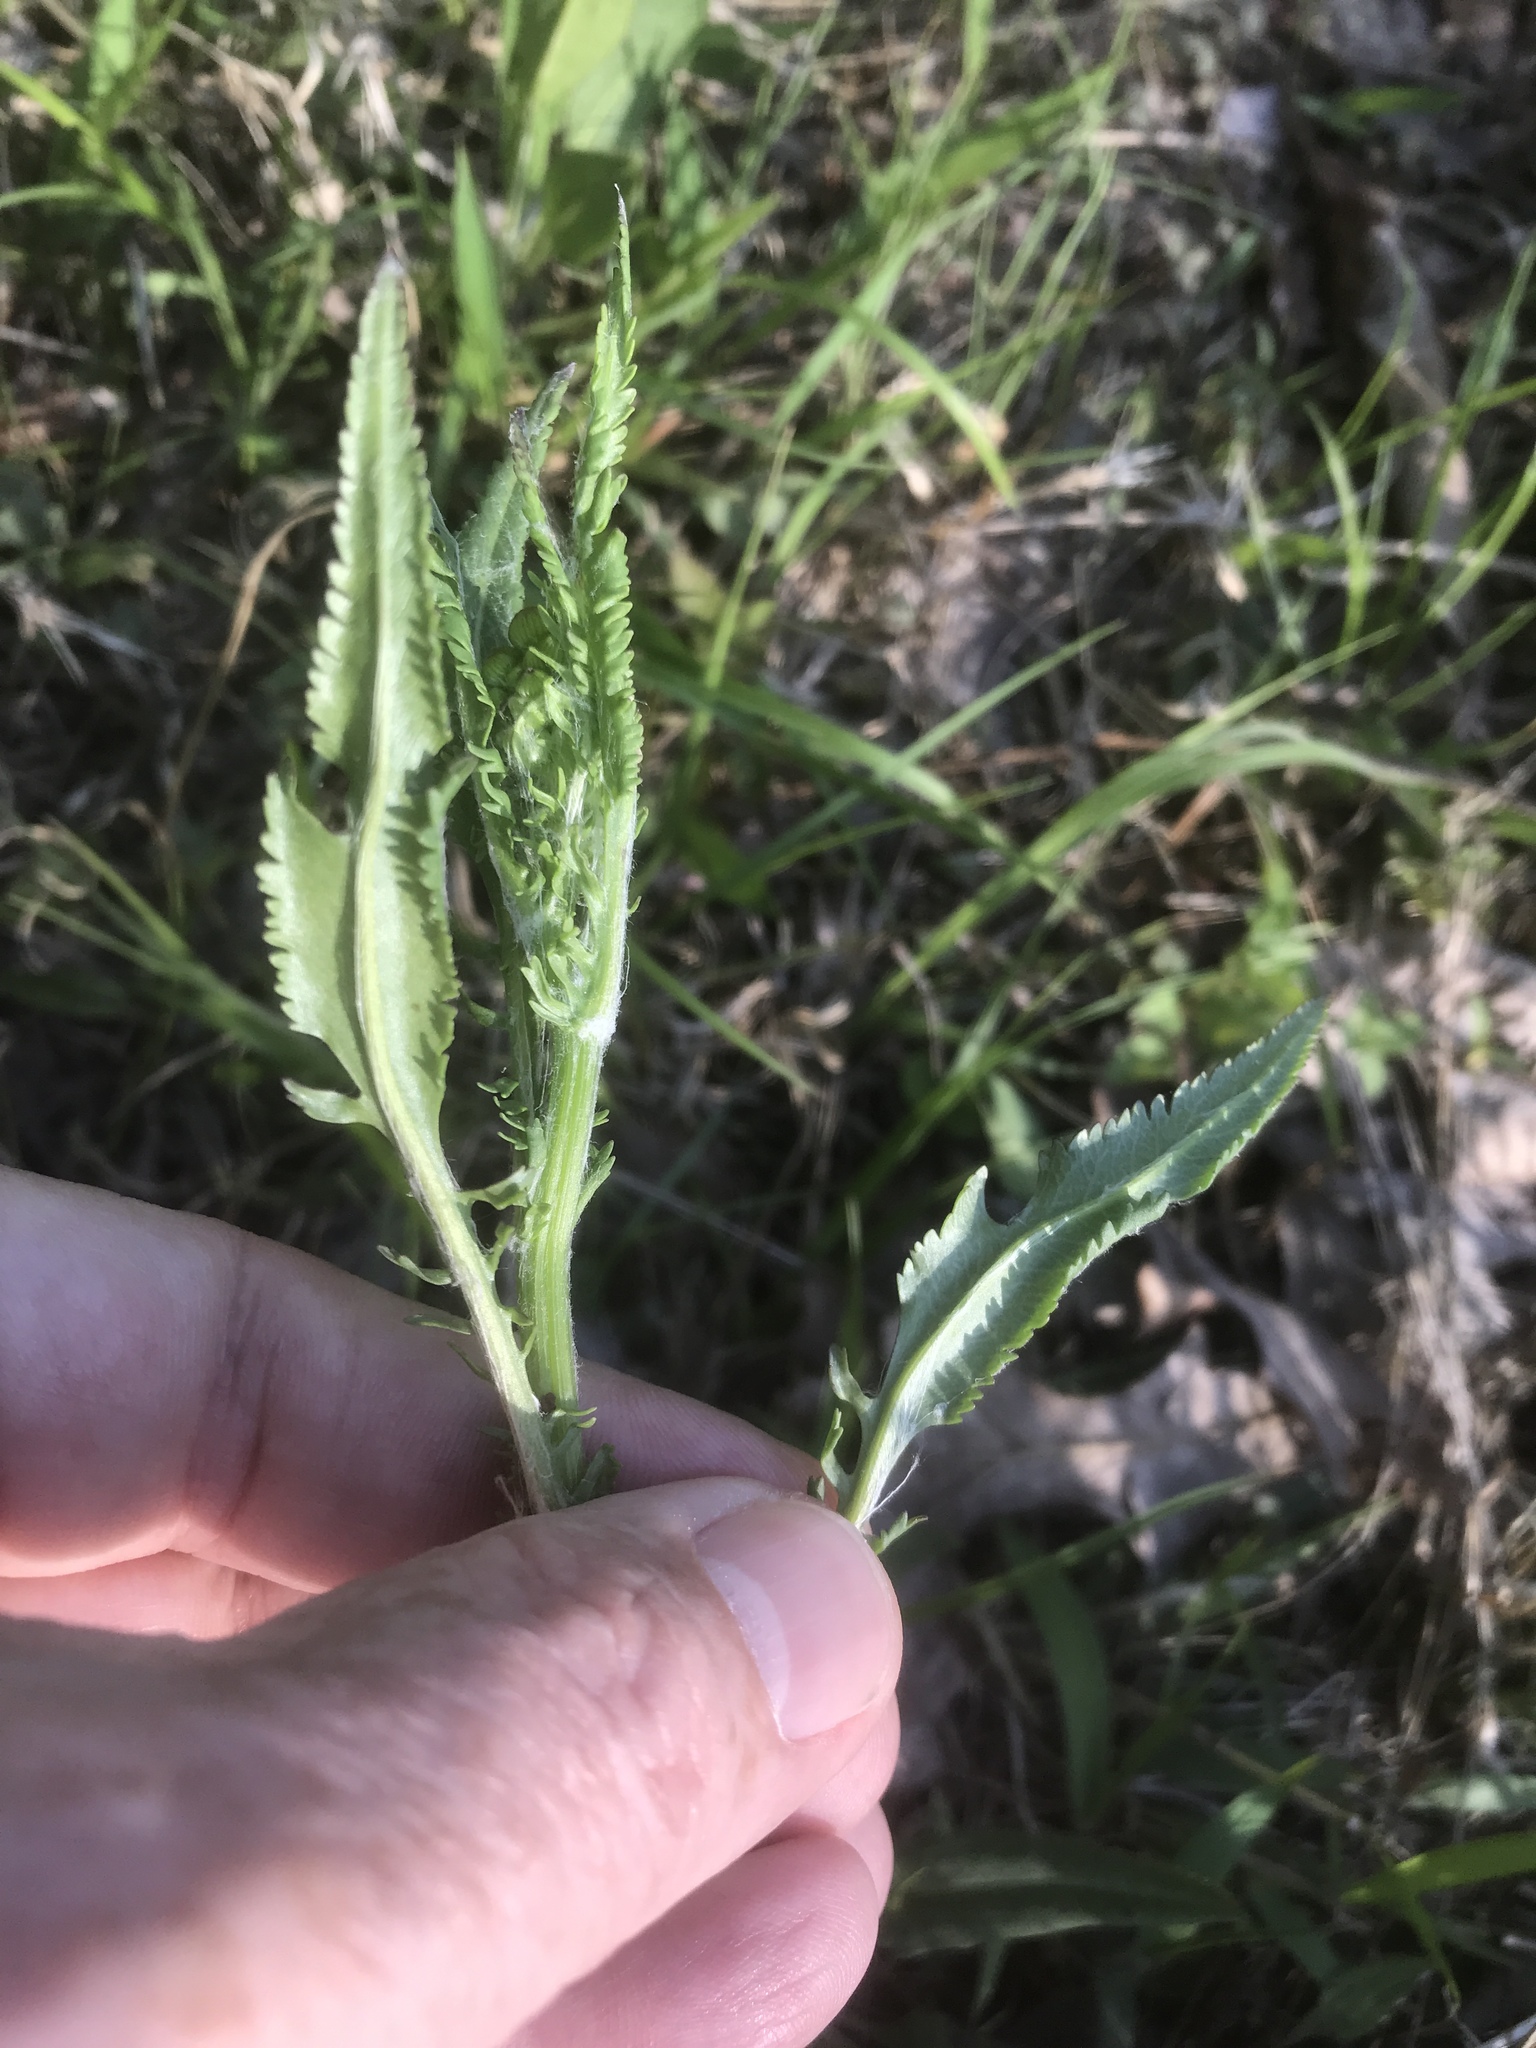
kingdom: Plantae
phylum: Tracheophyta
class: Magnoliopsida
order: Asterales
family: Asteraceae
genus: Packera
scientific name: Packera anonyma
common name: Small ragwort
